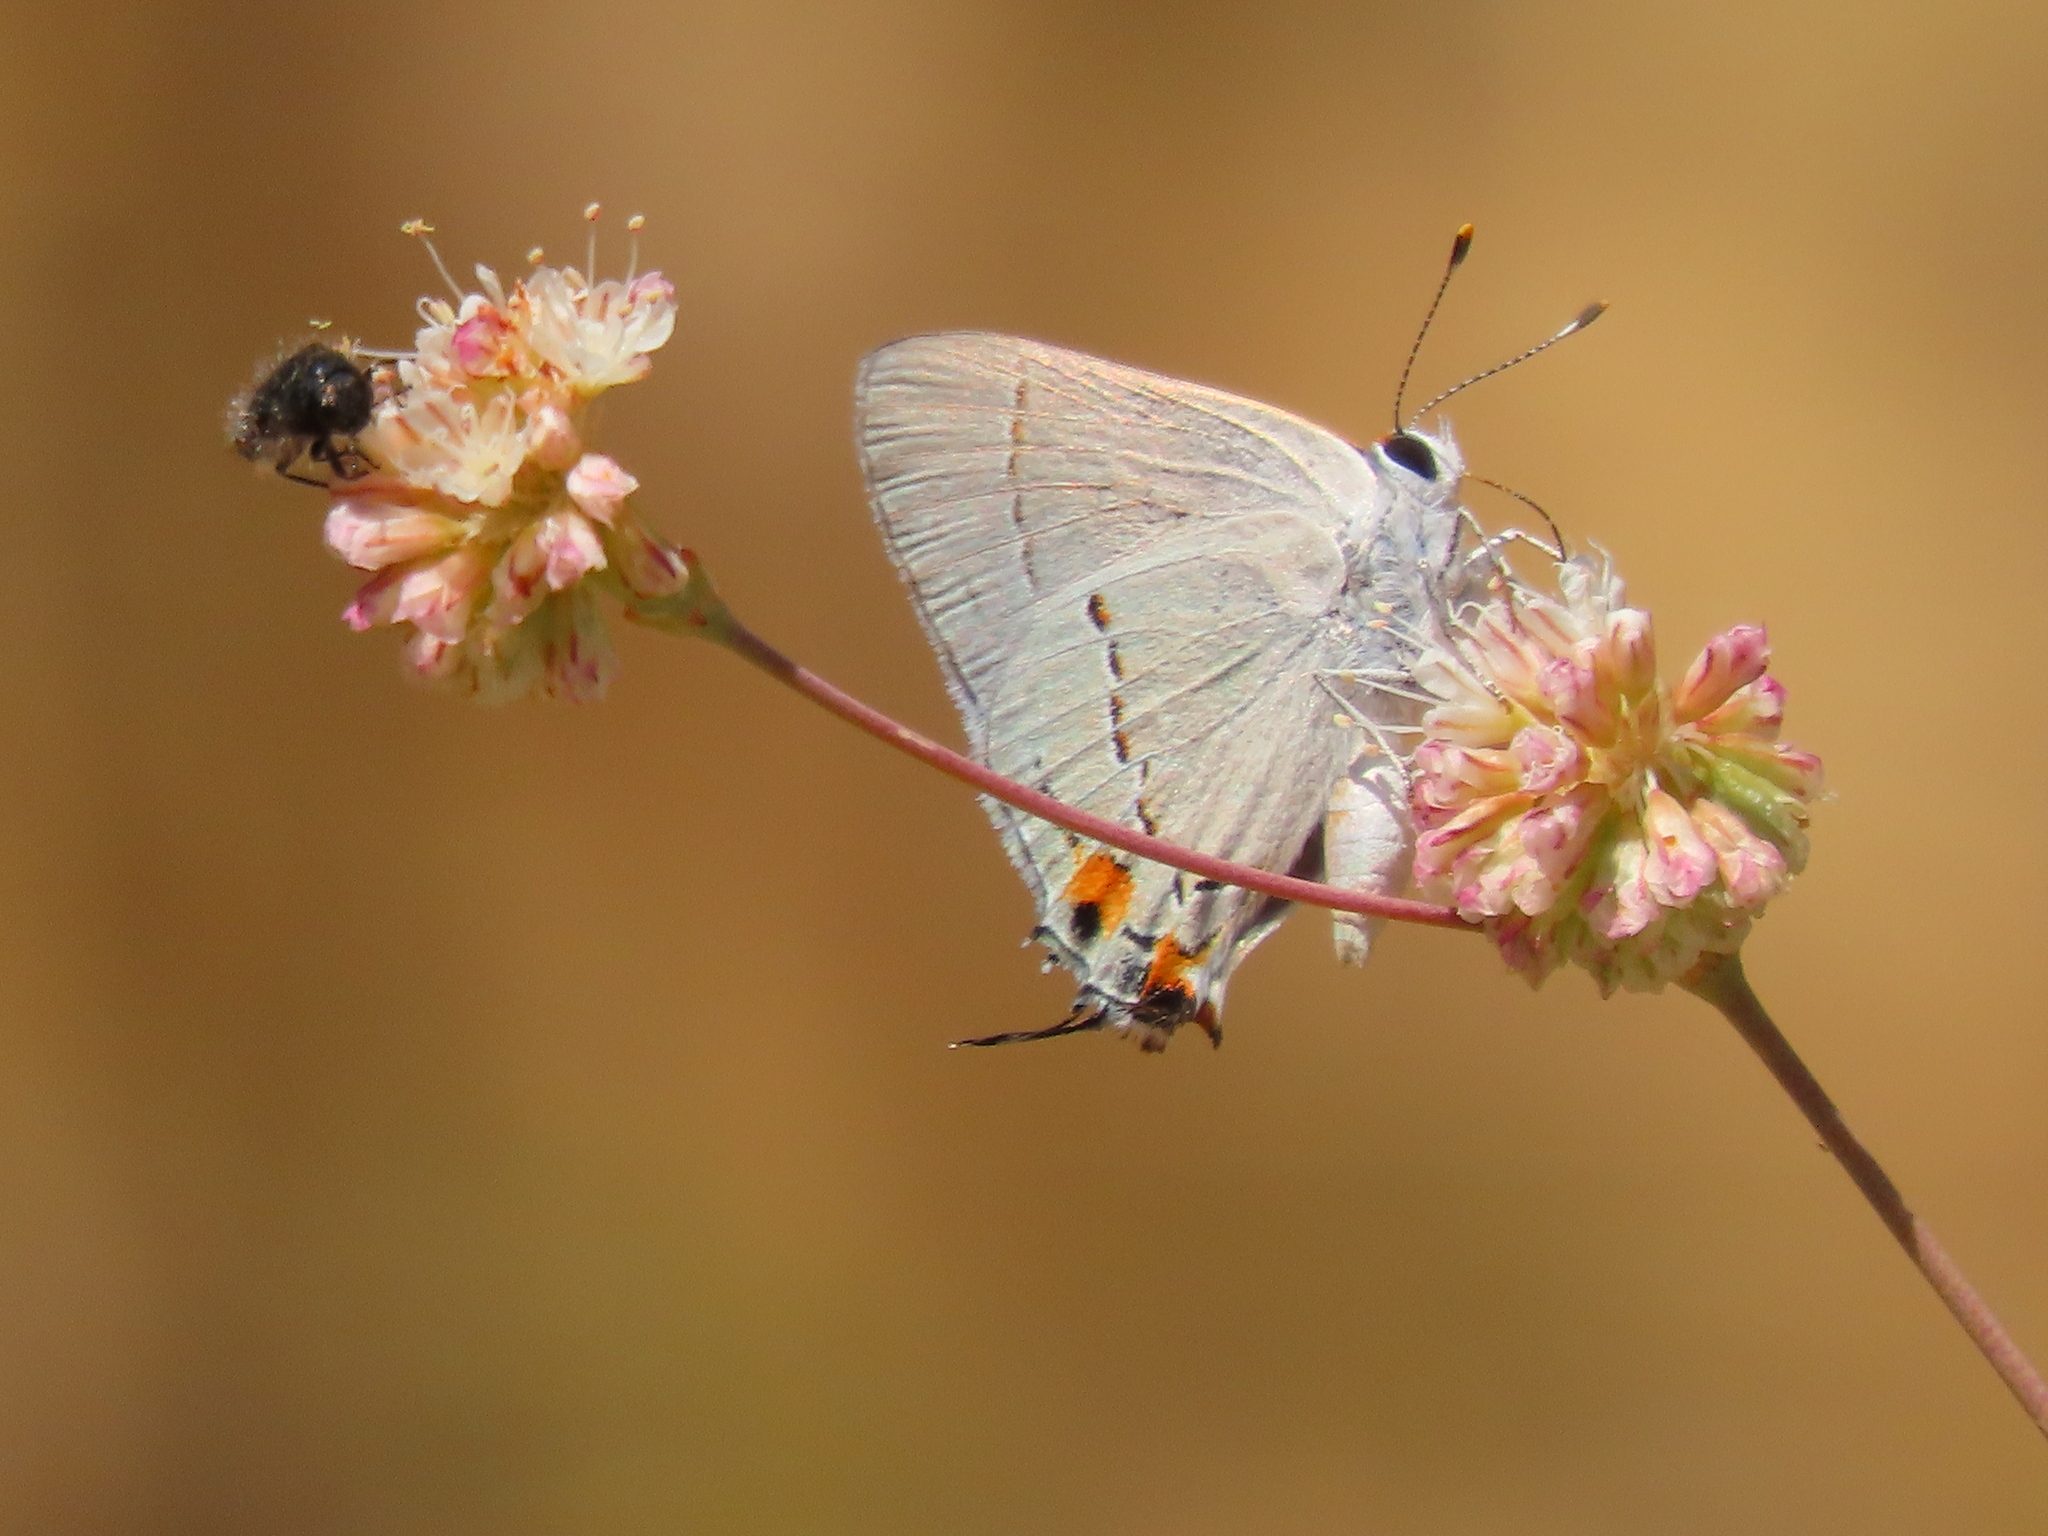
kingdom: Animalia
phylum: Arthropoda
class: Insecta
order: Lepidoptera
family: Lycaenidae
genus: Strymon
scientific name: Strymon melinus
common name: Gray hairstreak
